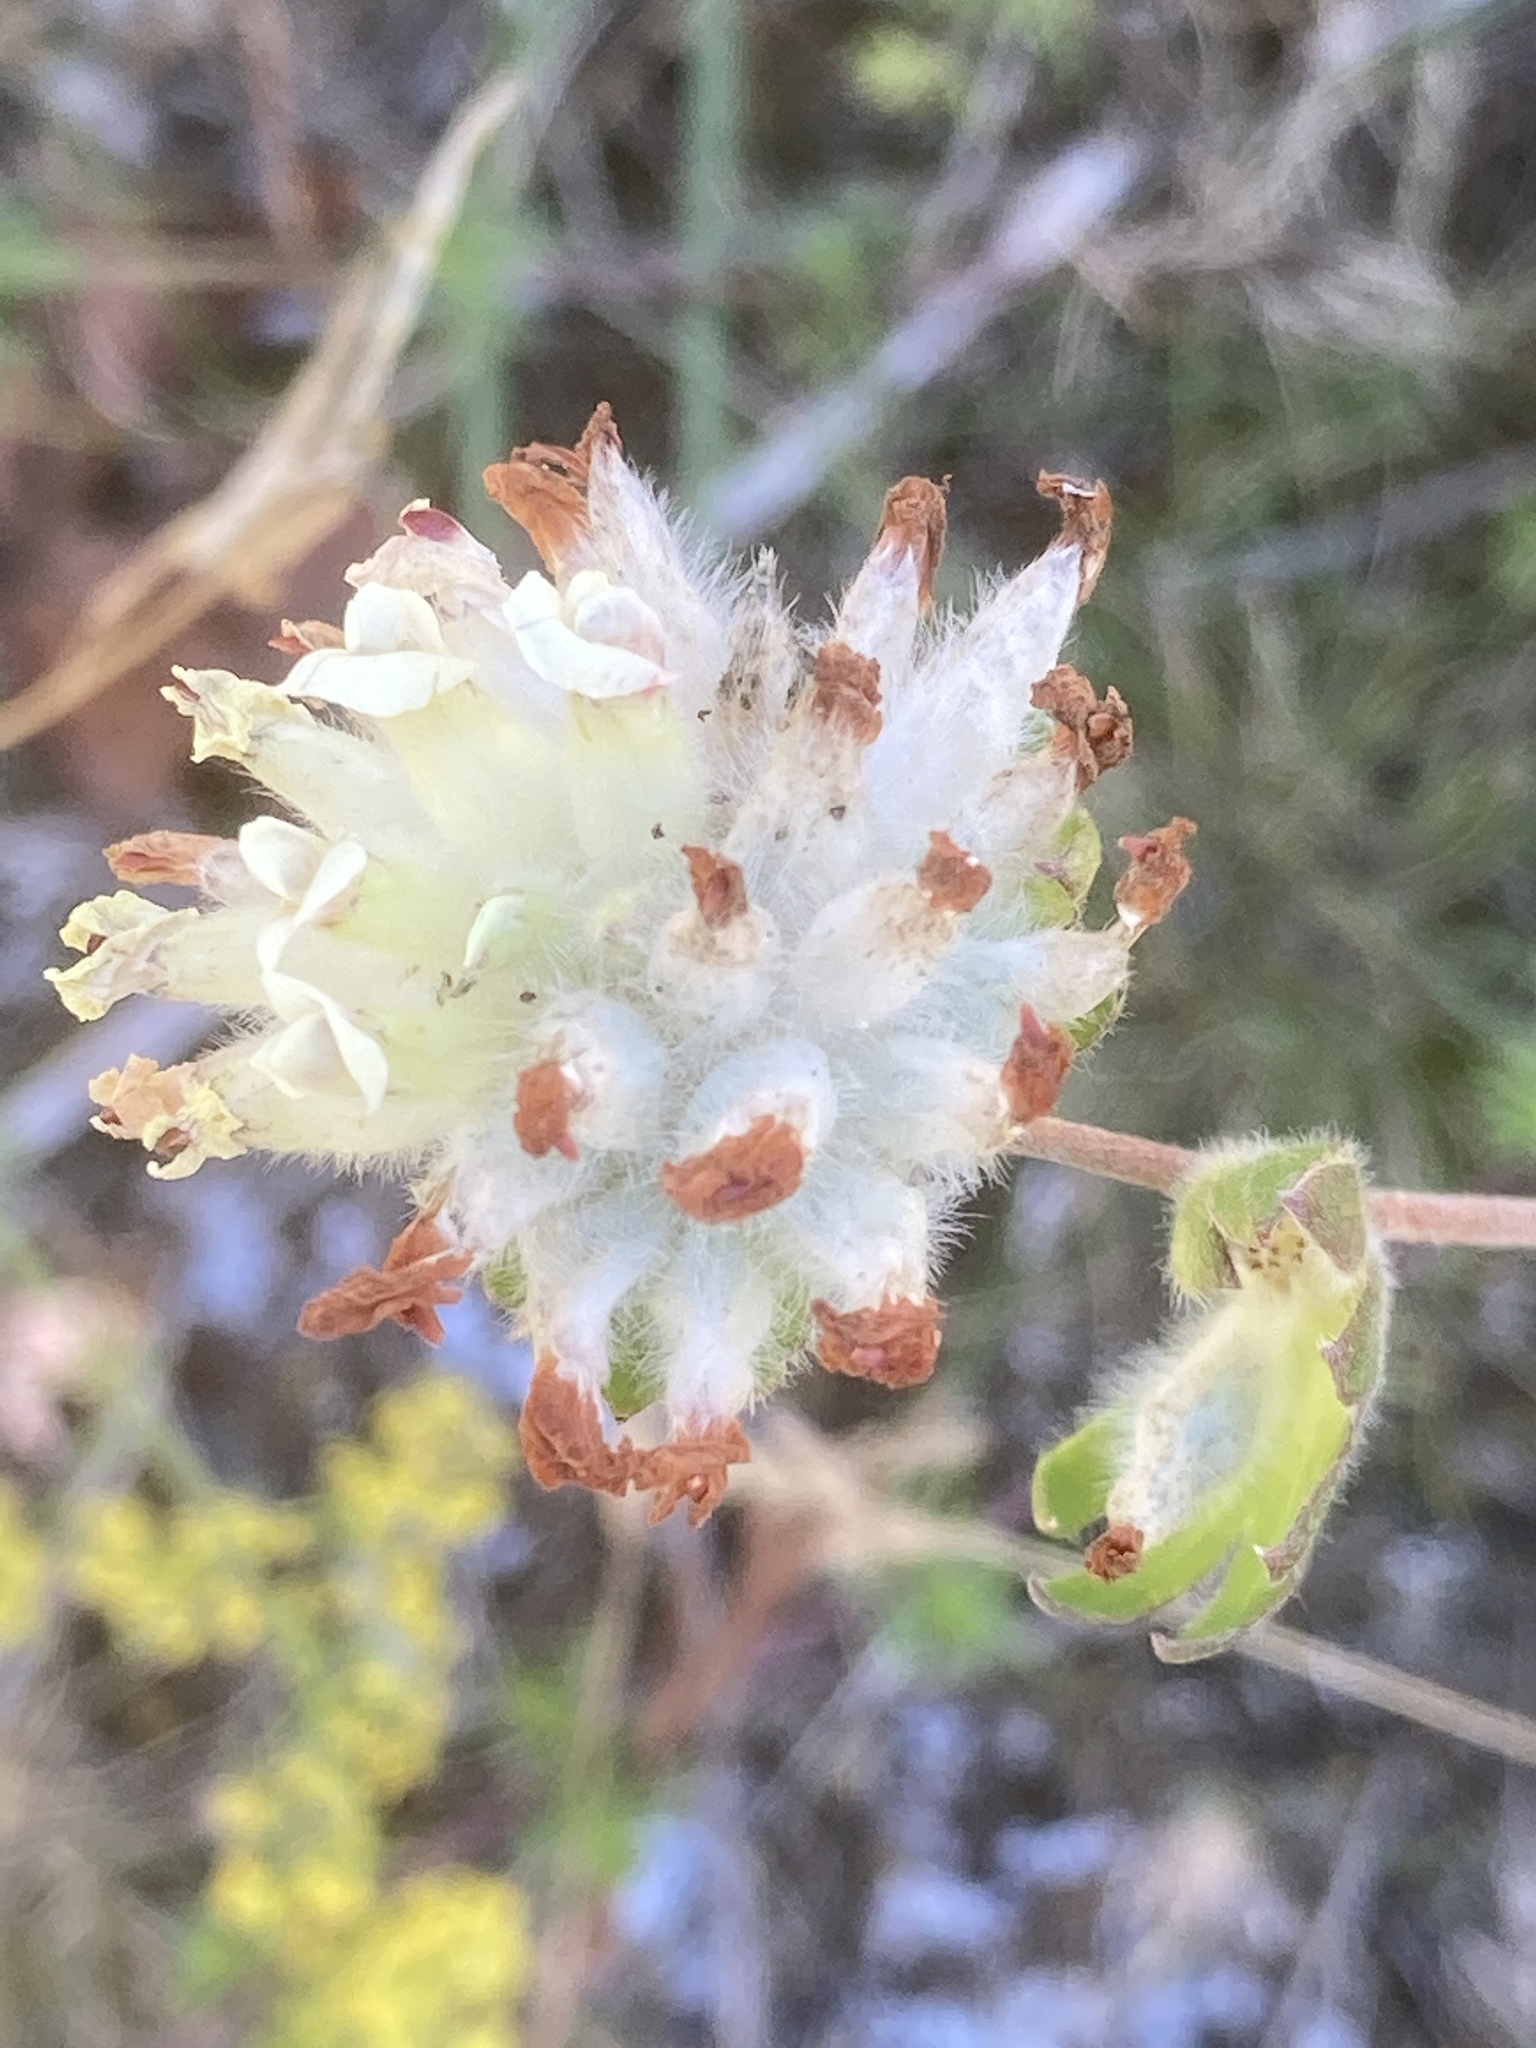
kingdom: Plantae
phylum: Tracheophyta
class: Magnoliopsida
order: Fabales
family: Fabaceae
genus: Anthyllis
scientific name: Anthyllis vulneraria
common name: Kidney vetch
